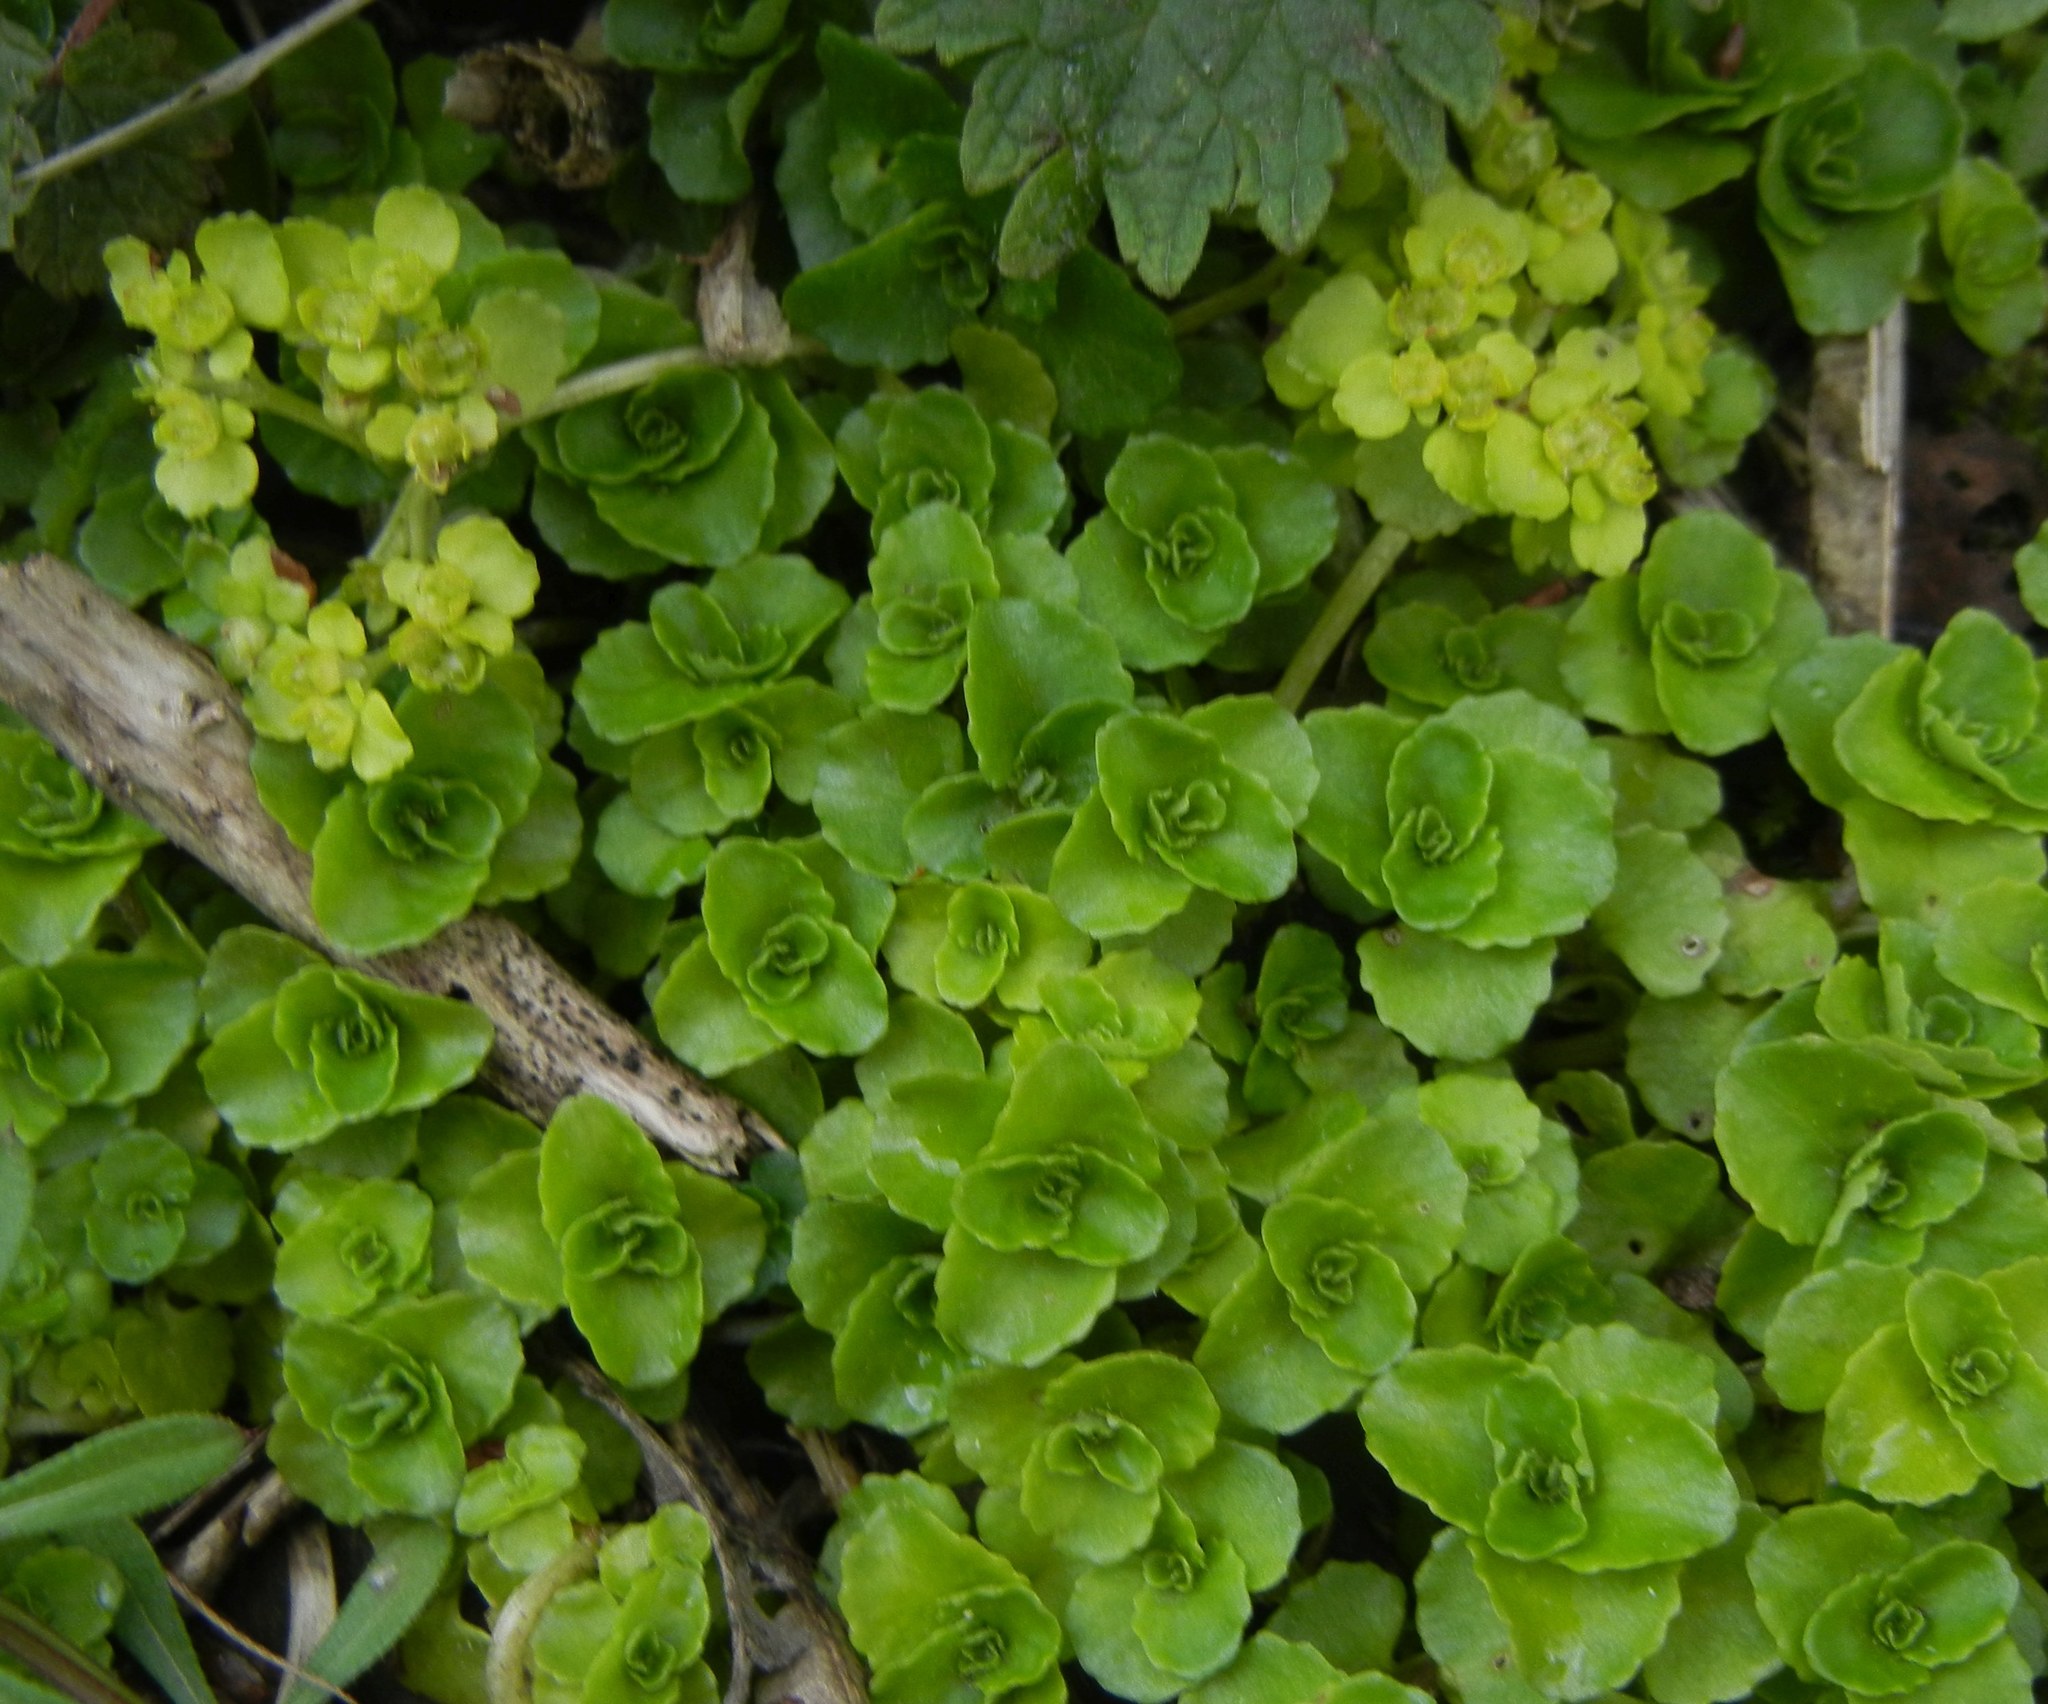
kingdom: Plantae
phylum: Tracheophyta
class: Magnoliopsida
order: Saxifragales
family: Saxifragaceae
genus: Chrysosplenium
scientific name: Chrysosplenium oppositifolium
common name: Opposite-leaved golden-saxifrage
